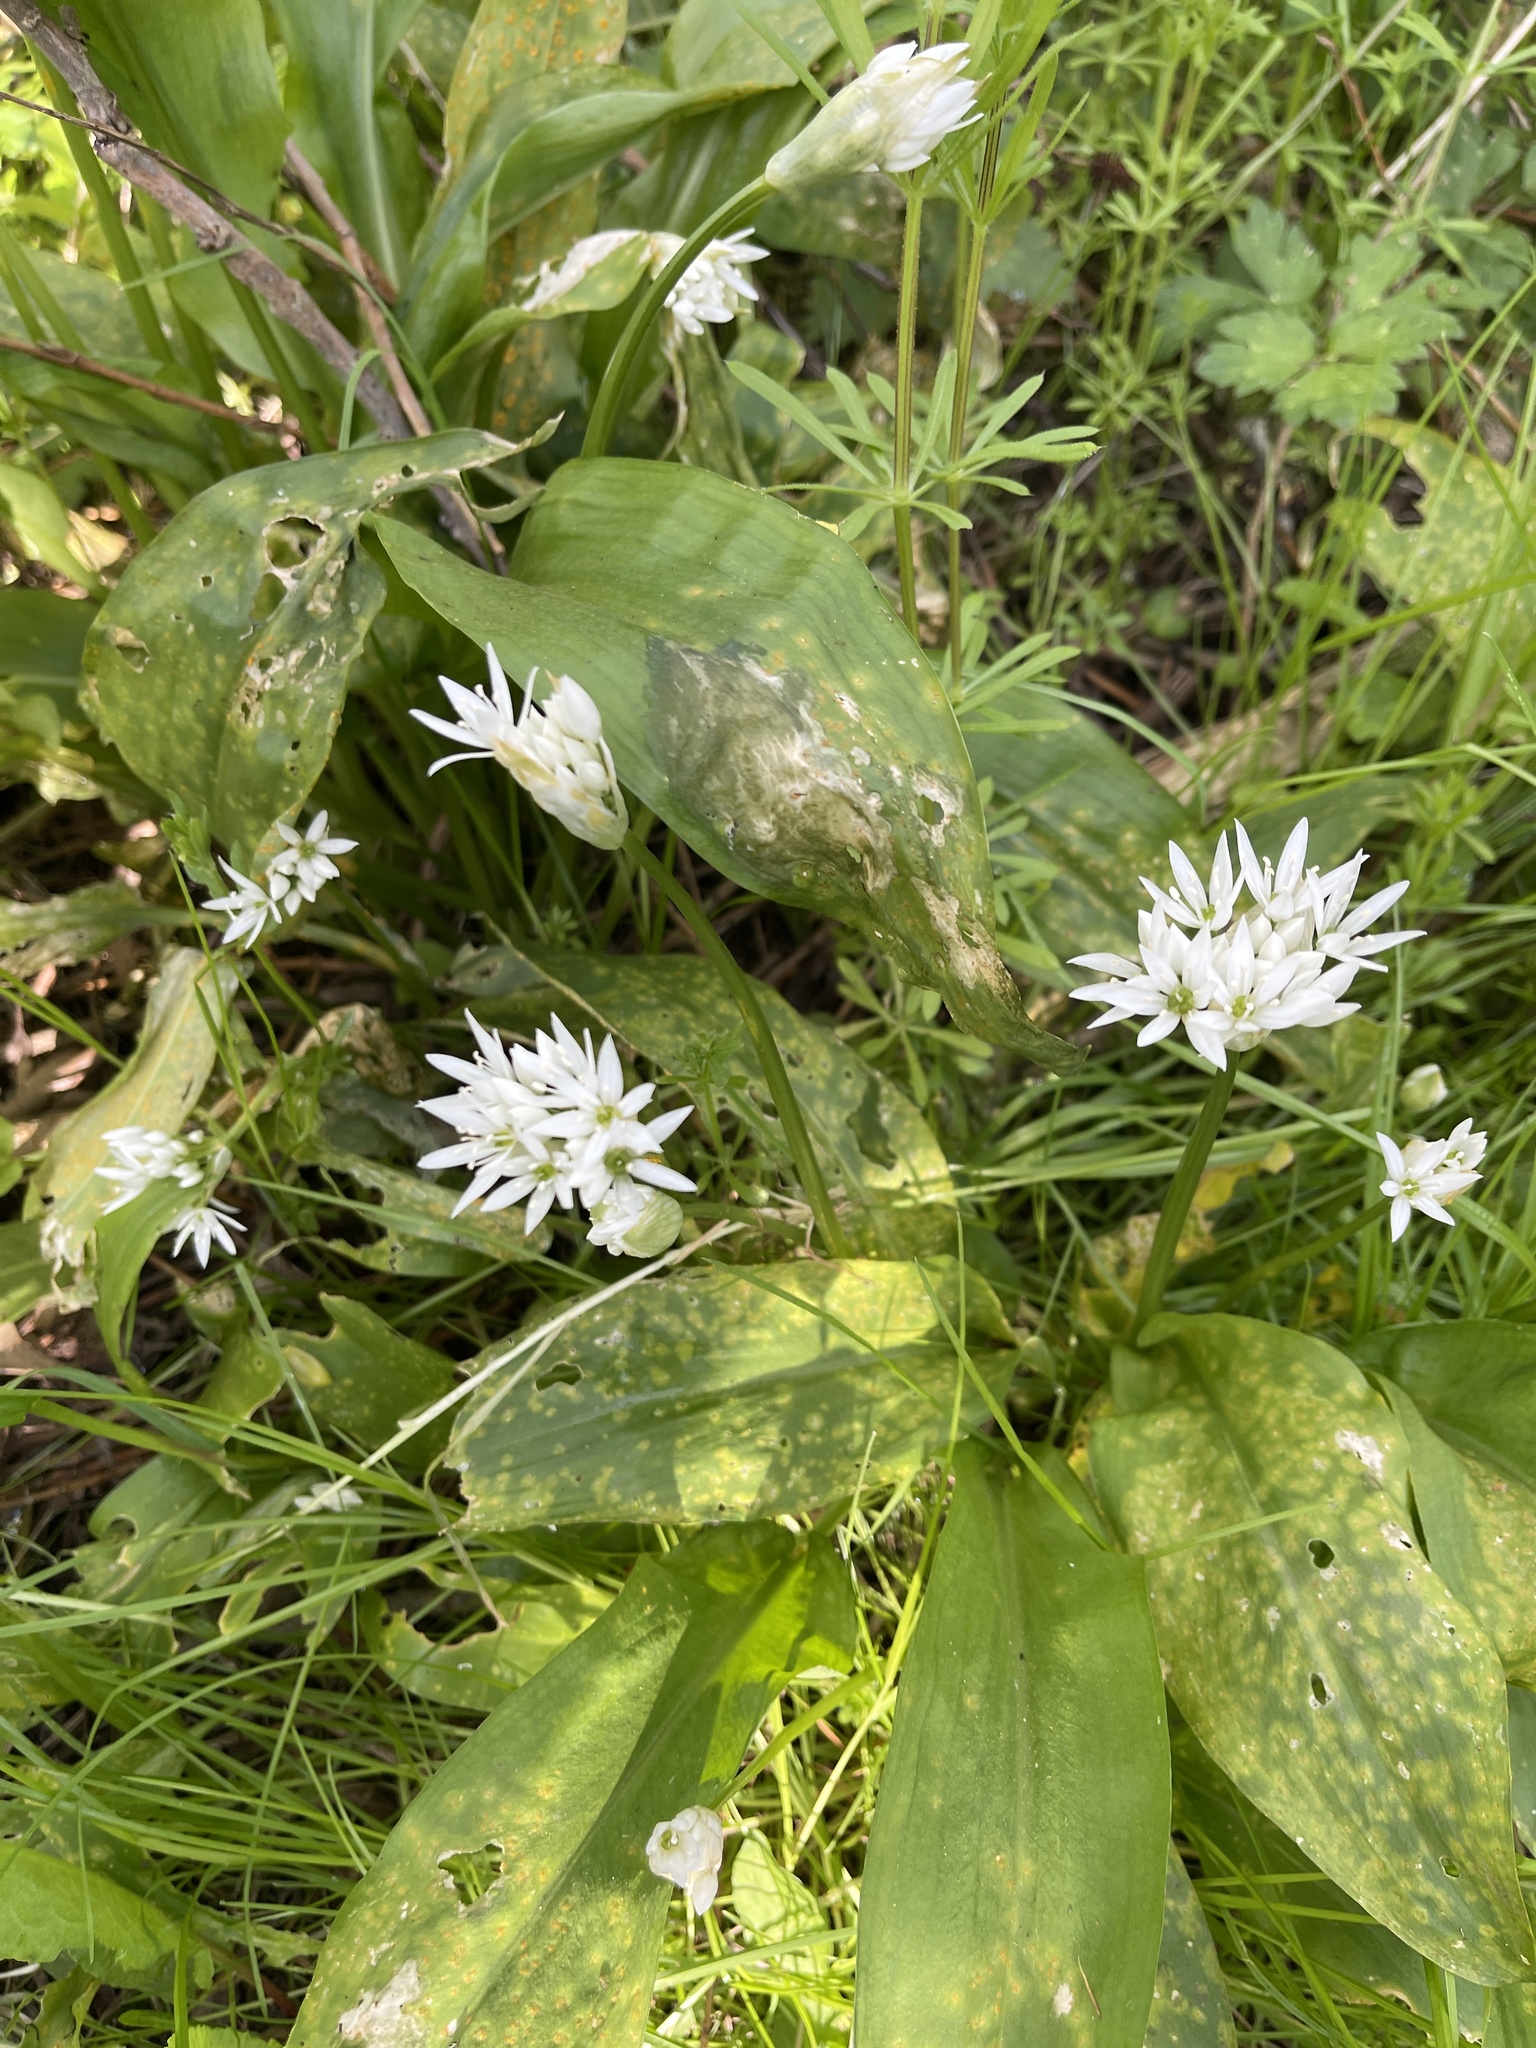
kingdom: Plantae
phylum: Tracheophyta
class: Liliopsida
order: Asparagales
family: Amaryllidaceae
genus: Allium
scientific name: Allium ursinum
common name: Ramsons
